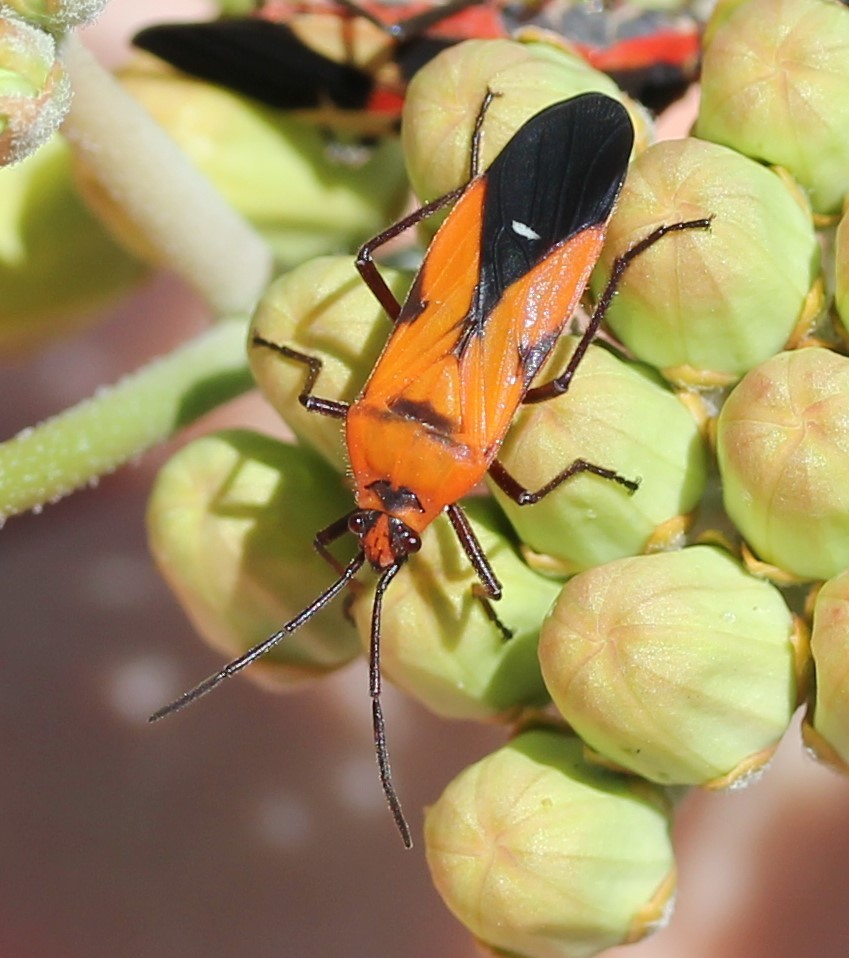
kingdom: Animalia
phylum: Arthropoda
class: Insecta
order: Hemiptera
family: Lygaeidae
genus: Oncopeltus
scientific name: Oncopeltus sanguinolentus
